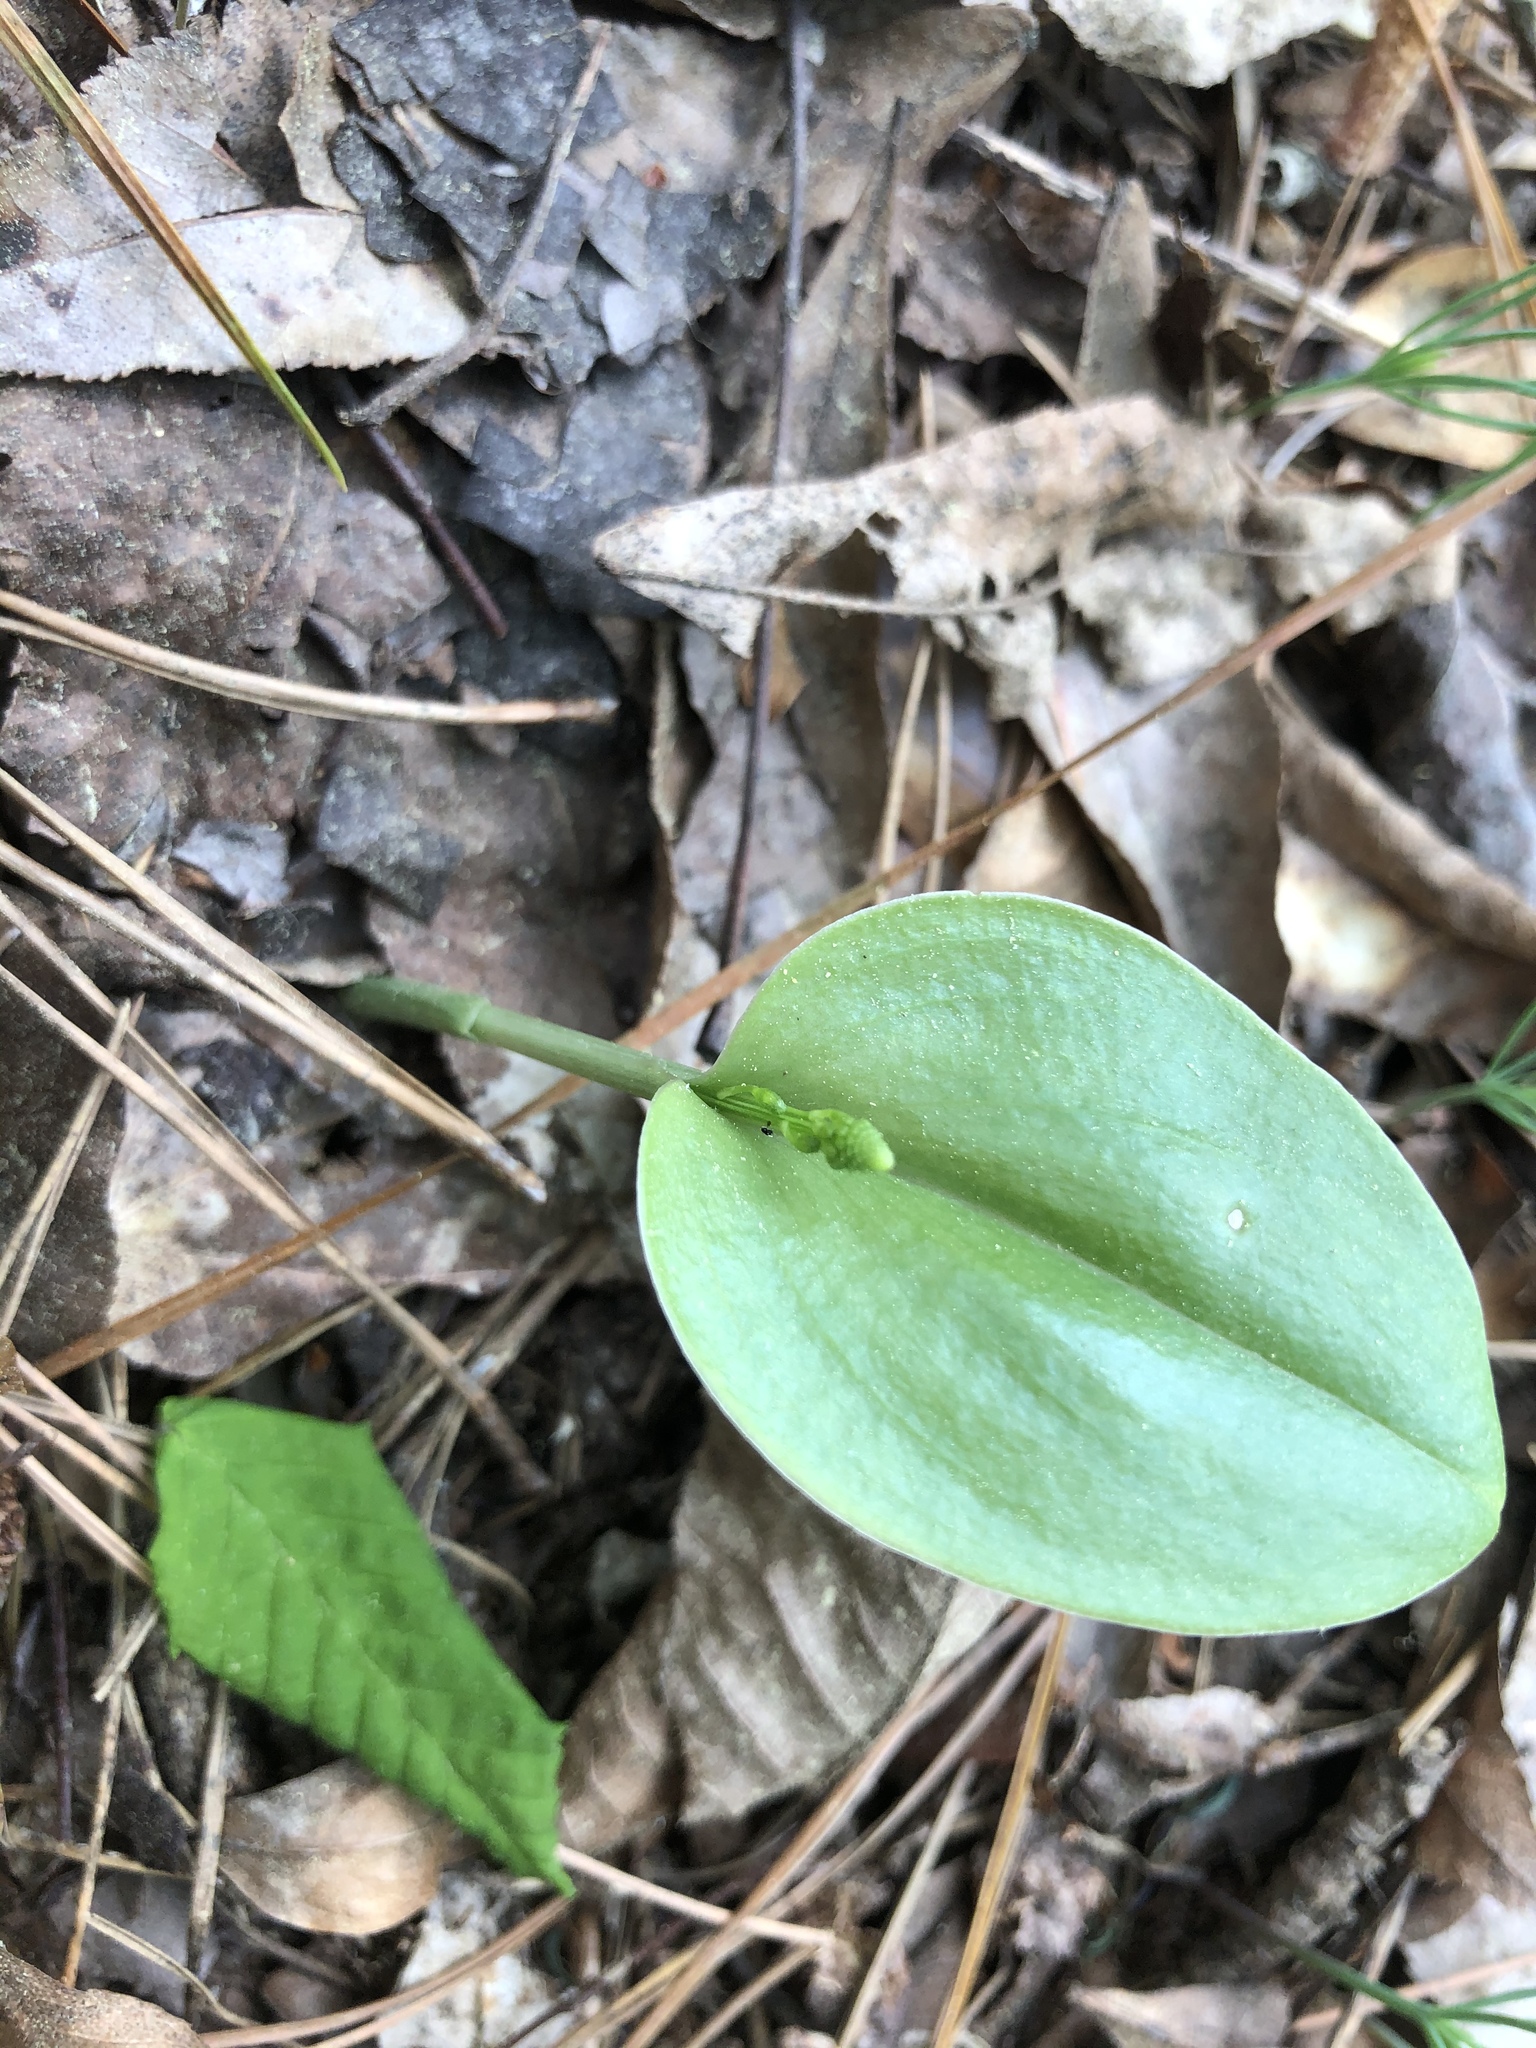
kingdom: Plantae
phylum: Tracheophyta
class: Liliopsida
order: Asparagales
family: Orchidaceae
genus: Malaxis
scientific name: Malaxis unifolia
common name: Green adder's-mouth
